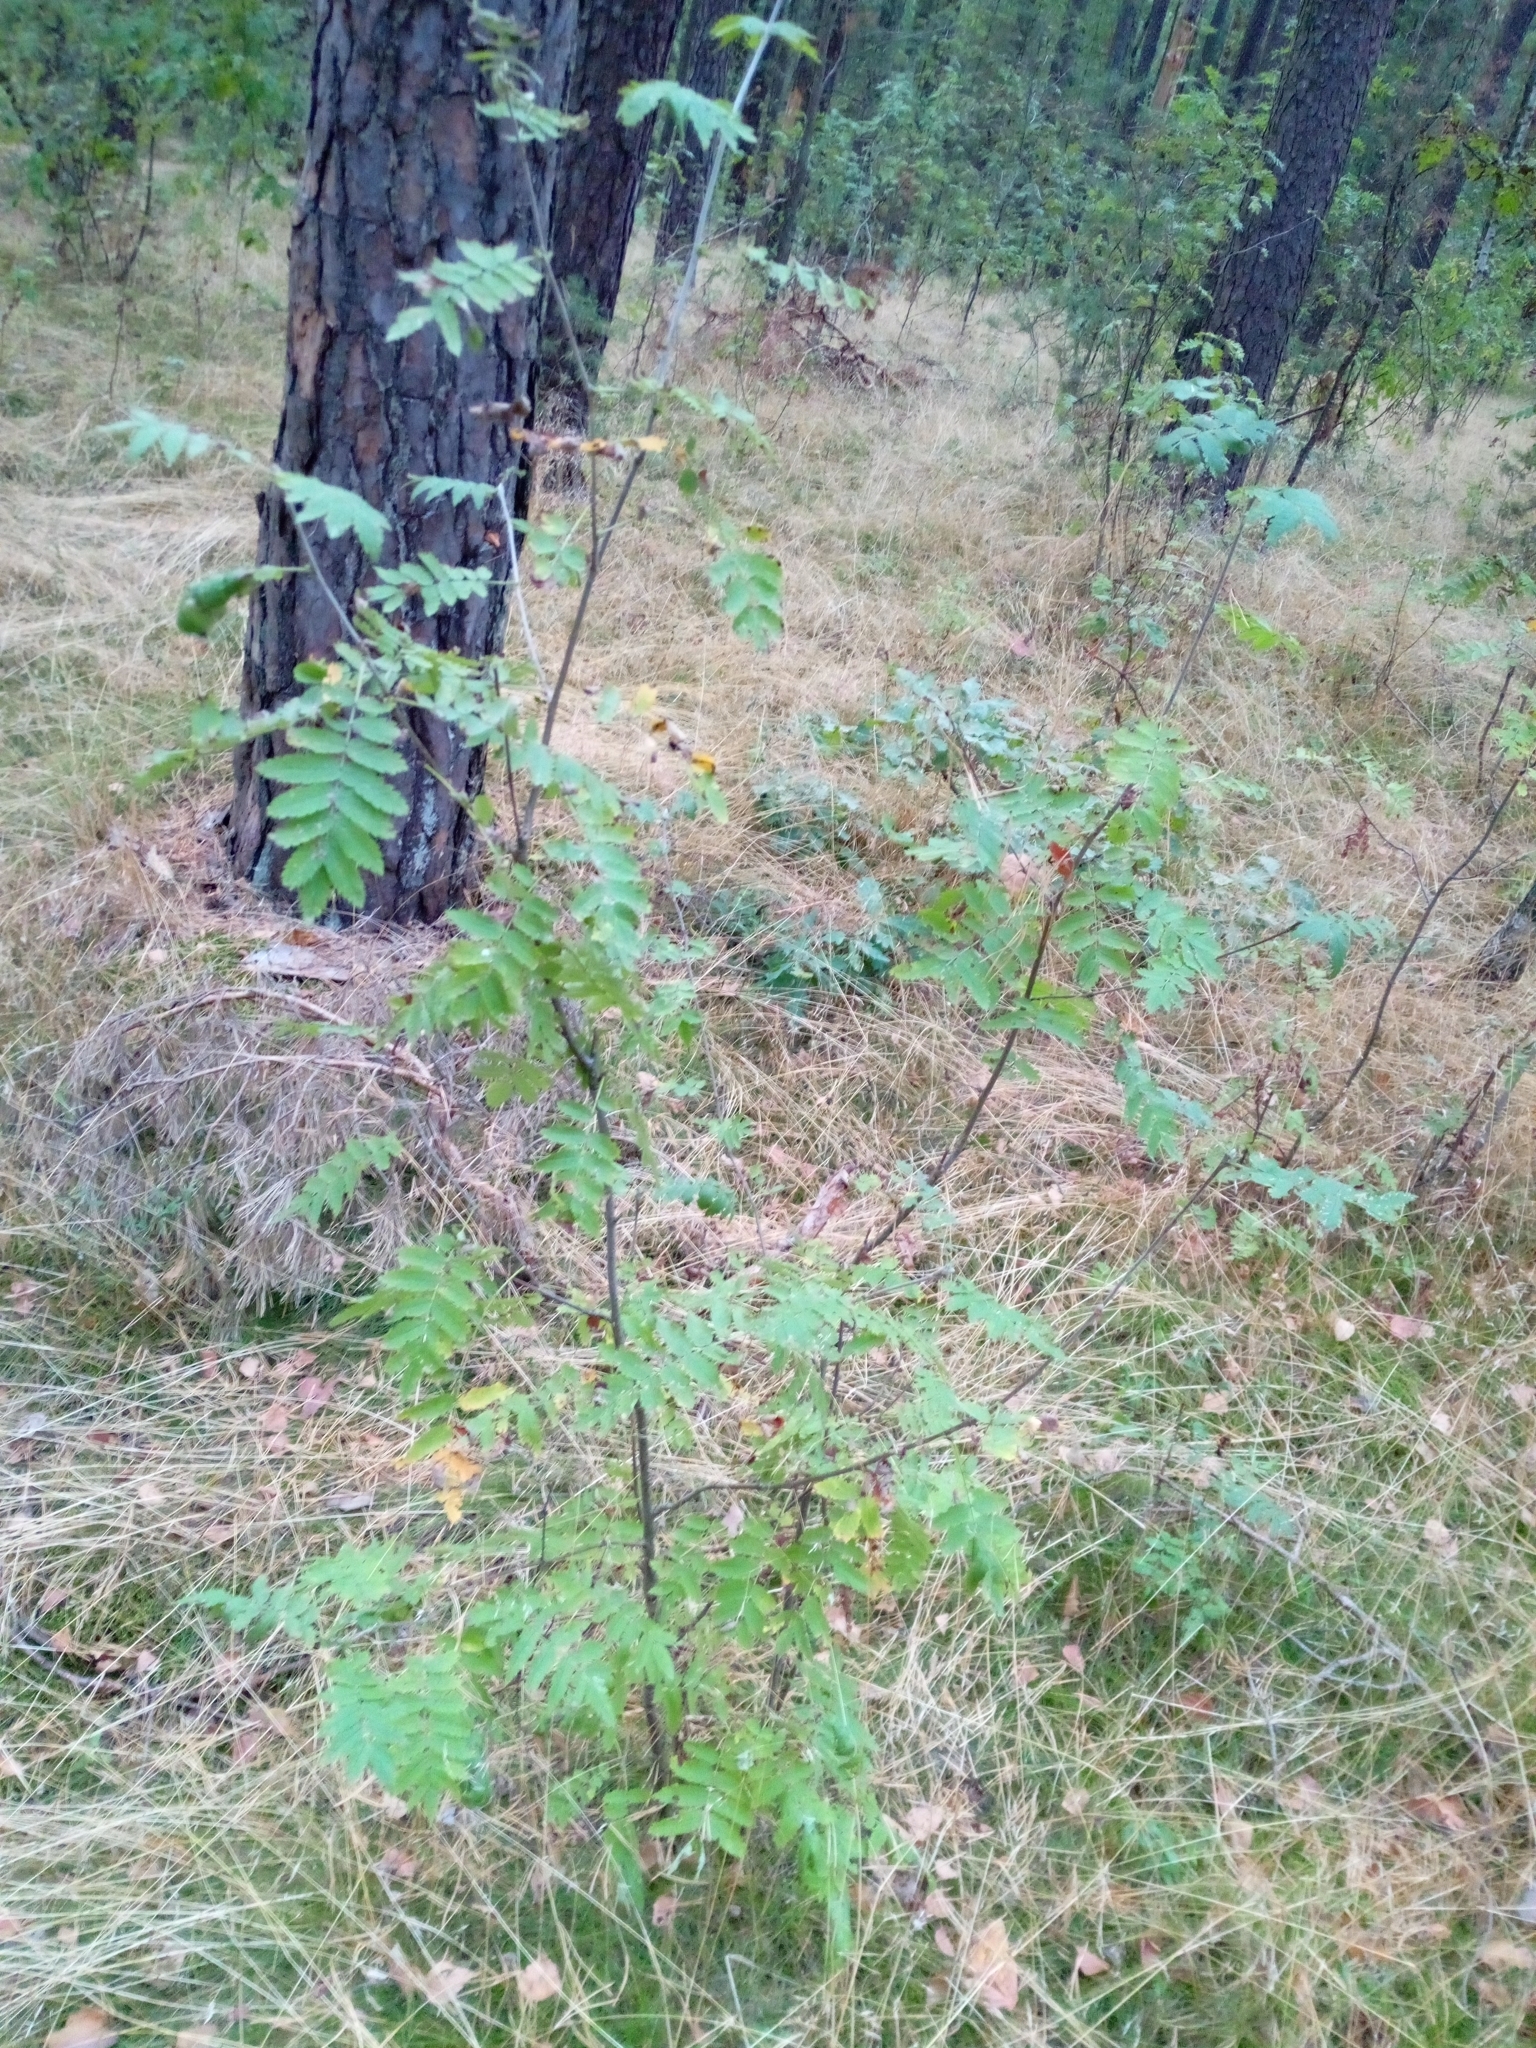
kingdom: Plantae
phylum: Tracheophyta
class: Magnoliopsida
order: Rosales
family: Rosaceae
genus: Sorbus
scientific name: Sorbus aucuparia
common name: Rowan
